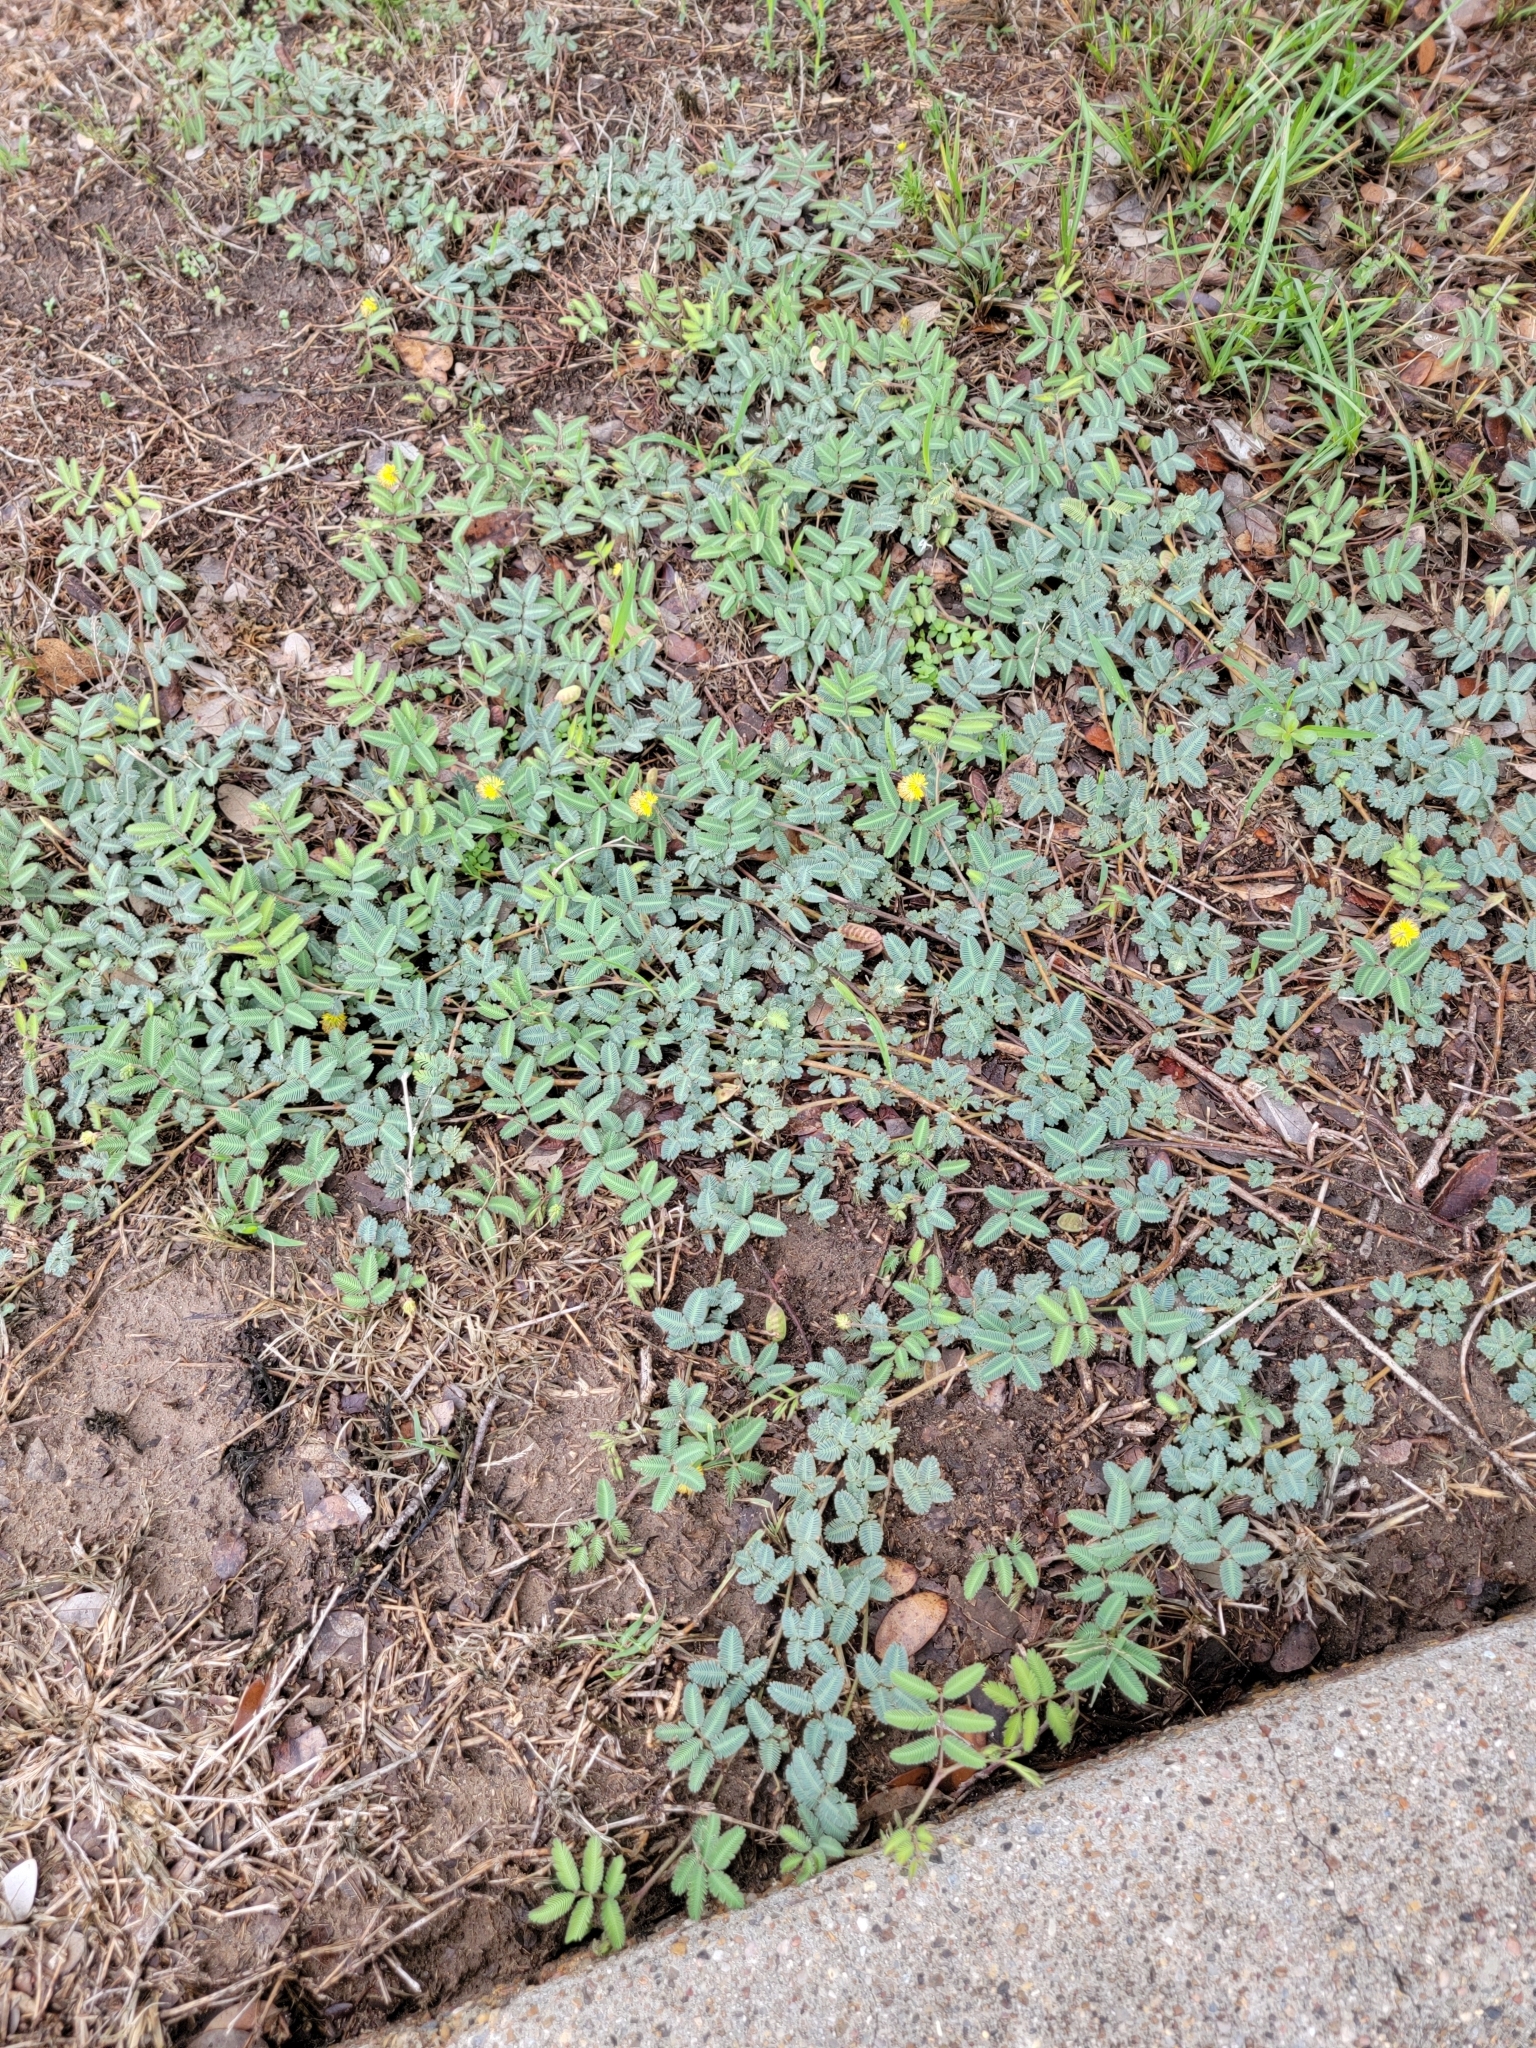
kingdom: Plantae
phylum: Tracheophyta
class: Magnoliopsida
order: Fabales
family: Fabaceae
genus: Neptunia
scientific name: Neptunia pubescens
